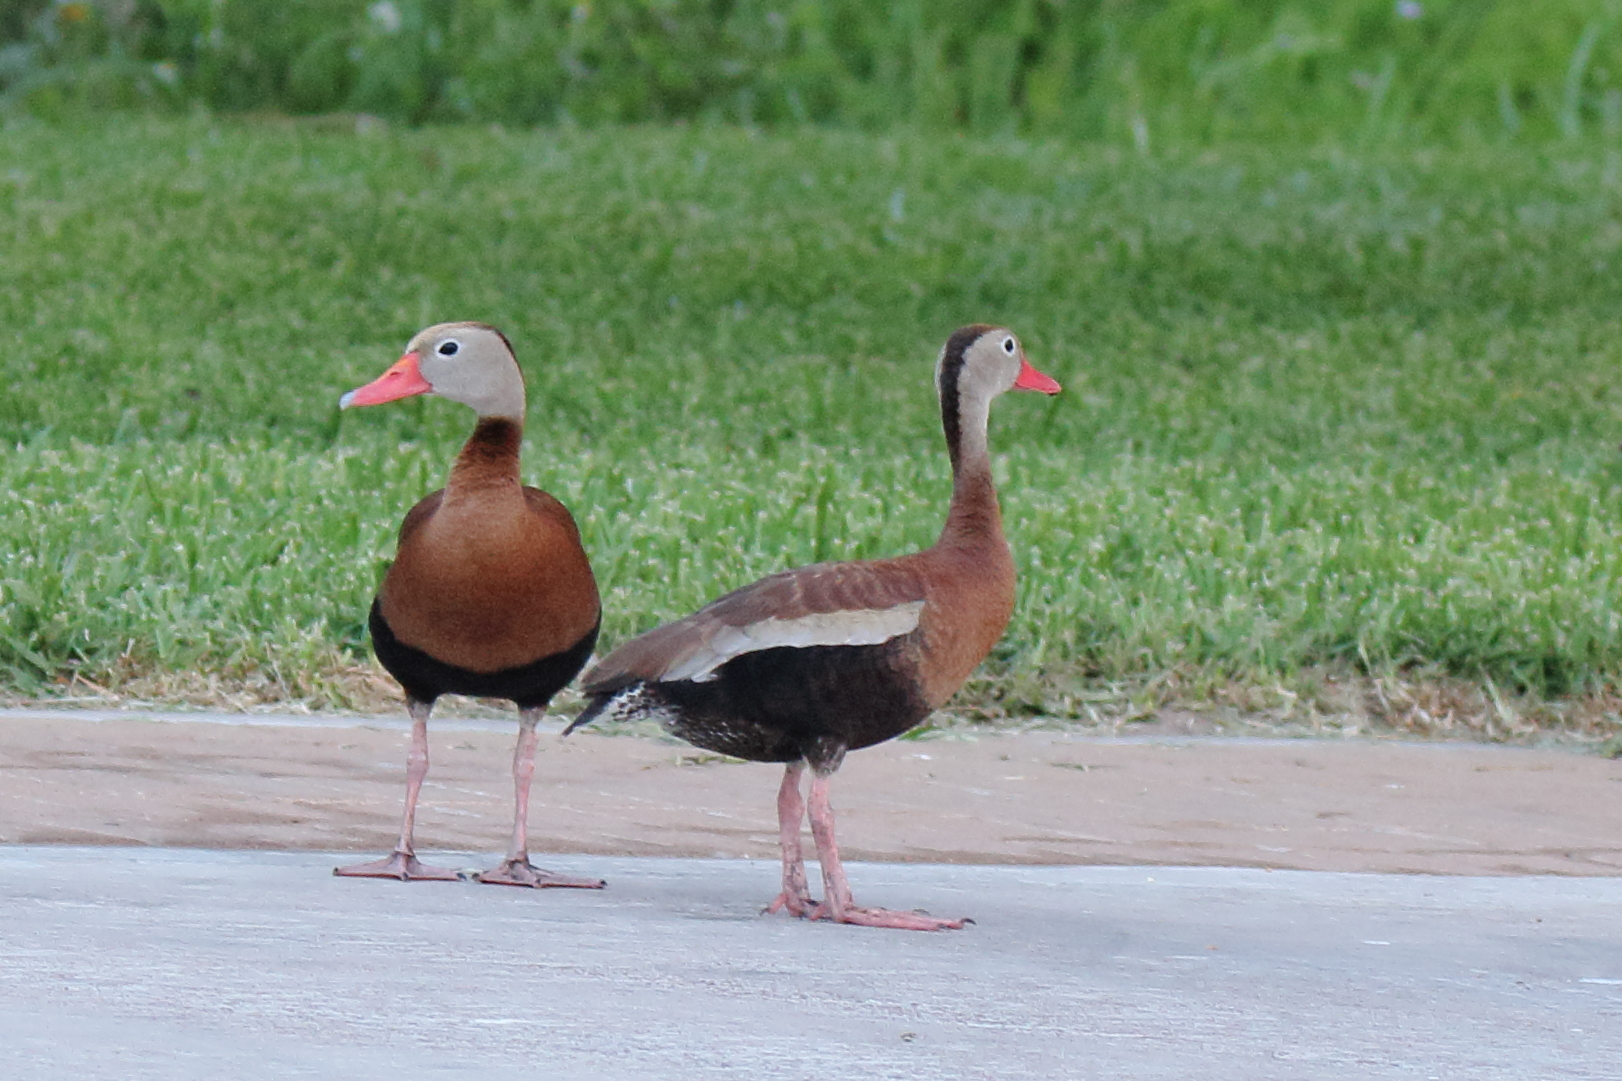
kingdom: Animalia
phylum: Chordata
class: Aves
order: Anseriformes
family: Anatidae
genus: Dendrocygna
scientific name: Dendrocygna autumnalis
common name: Black-bellied whistling duck
